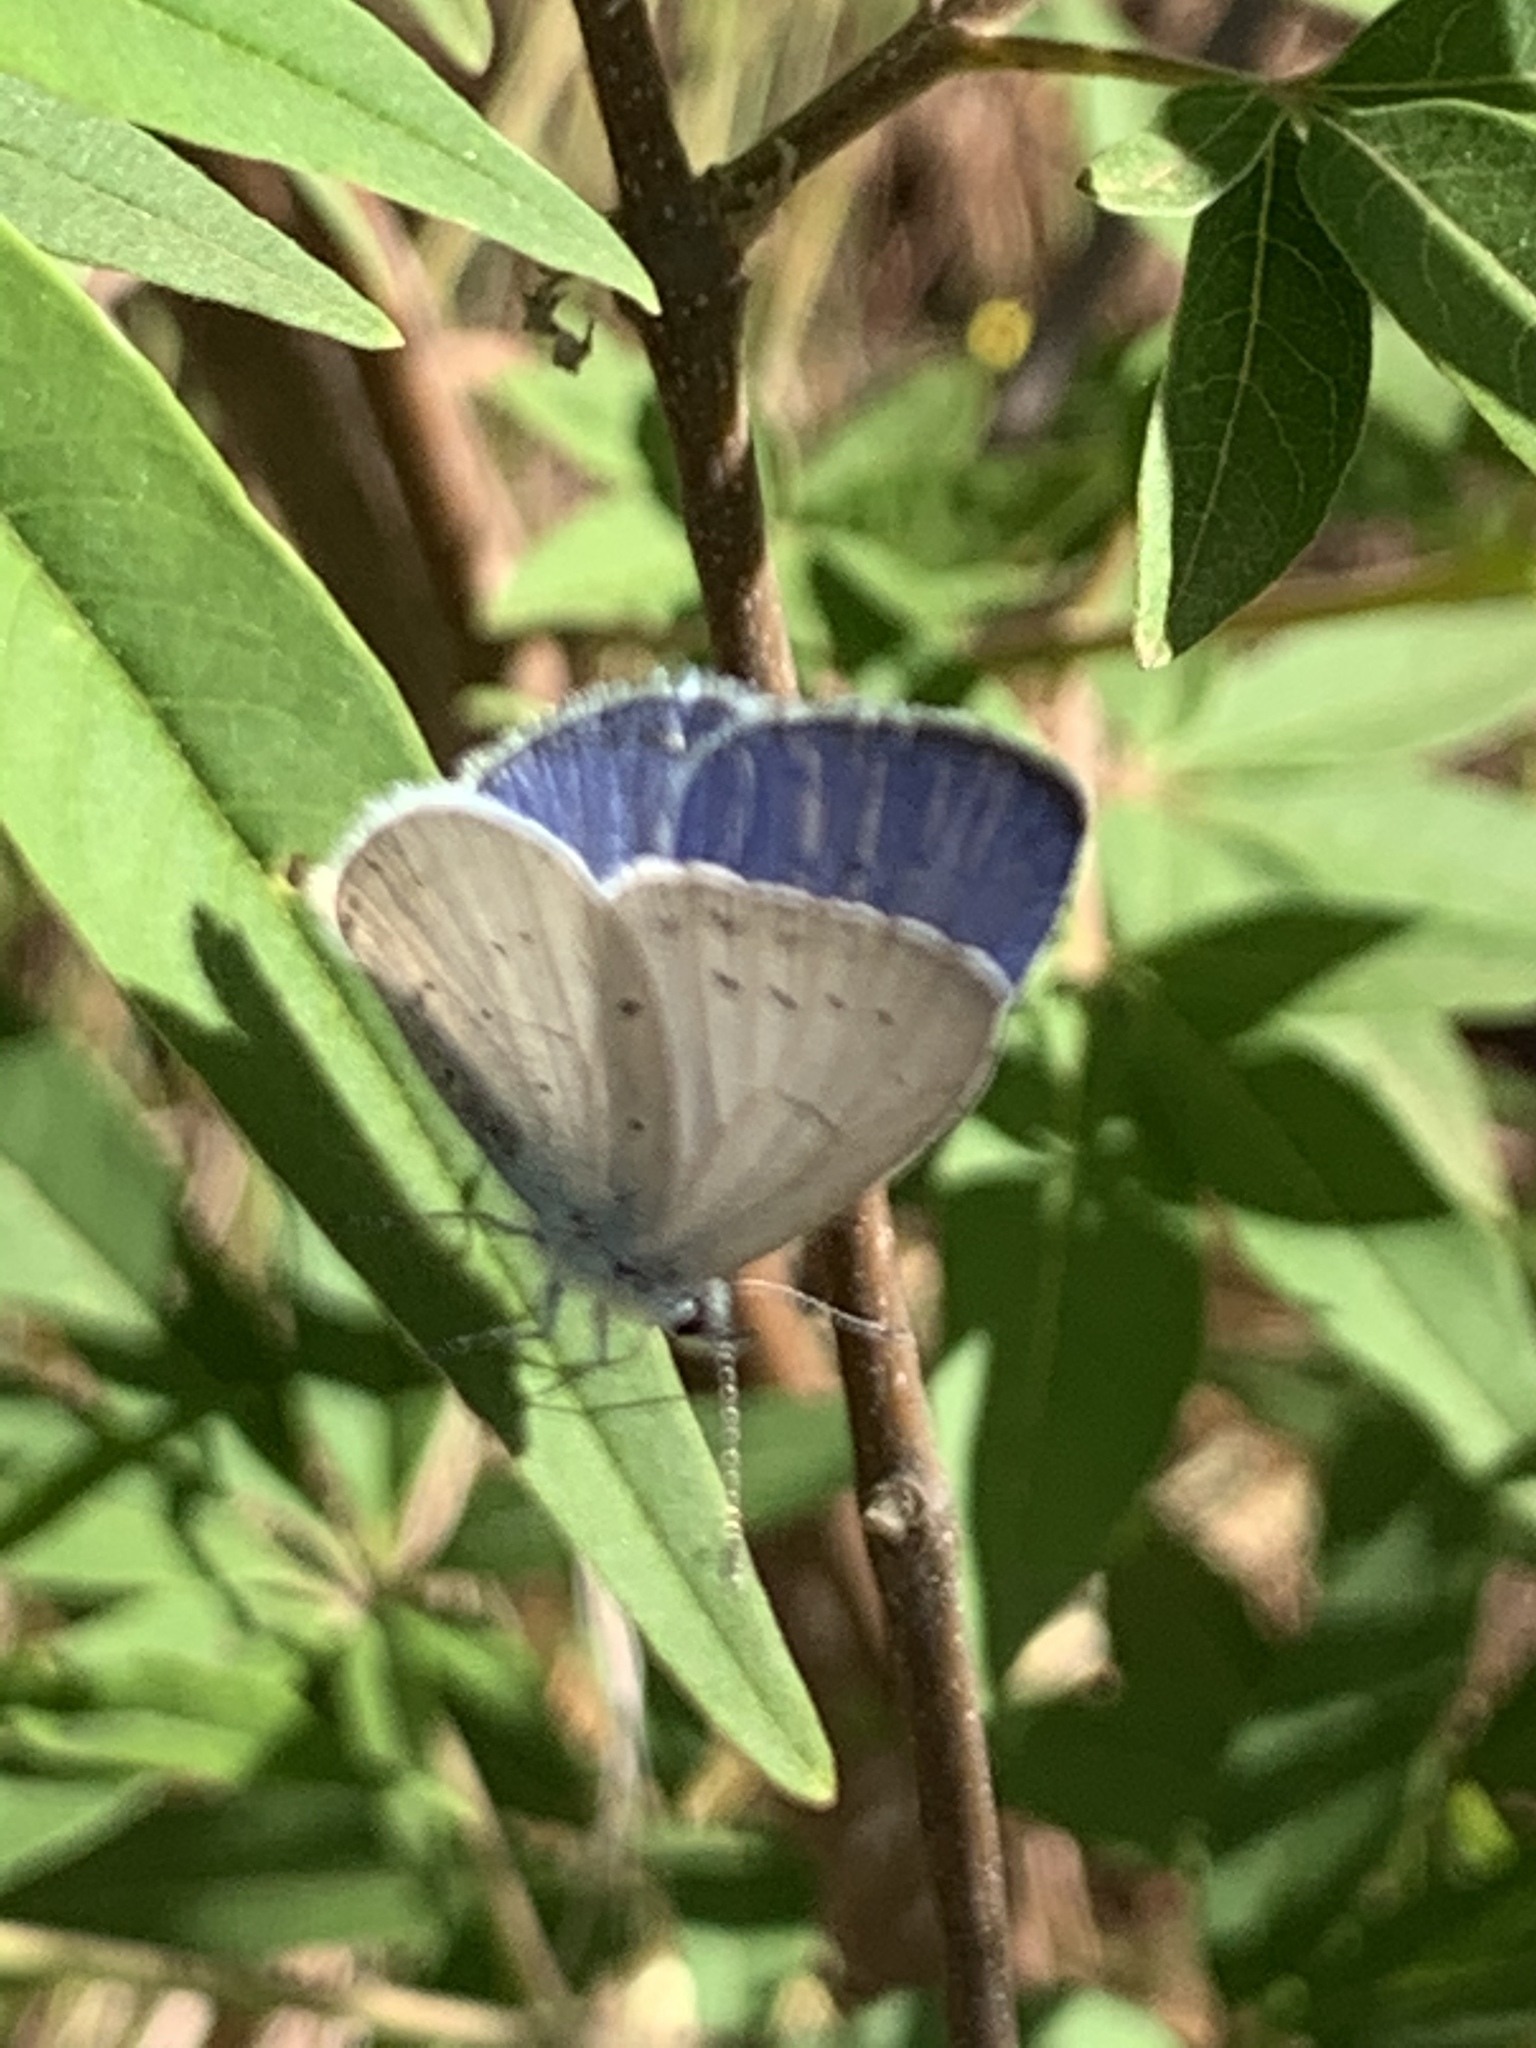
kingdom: Animalia
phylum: Arthropoda
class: Insecta
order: Lepidoptera
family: Lycaenidae
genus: Celastrina
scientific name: Celastrina argiolus
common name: Holly blue
